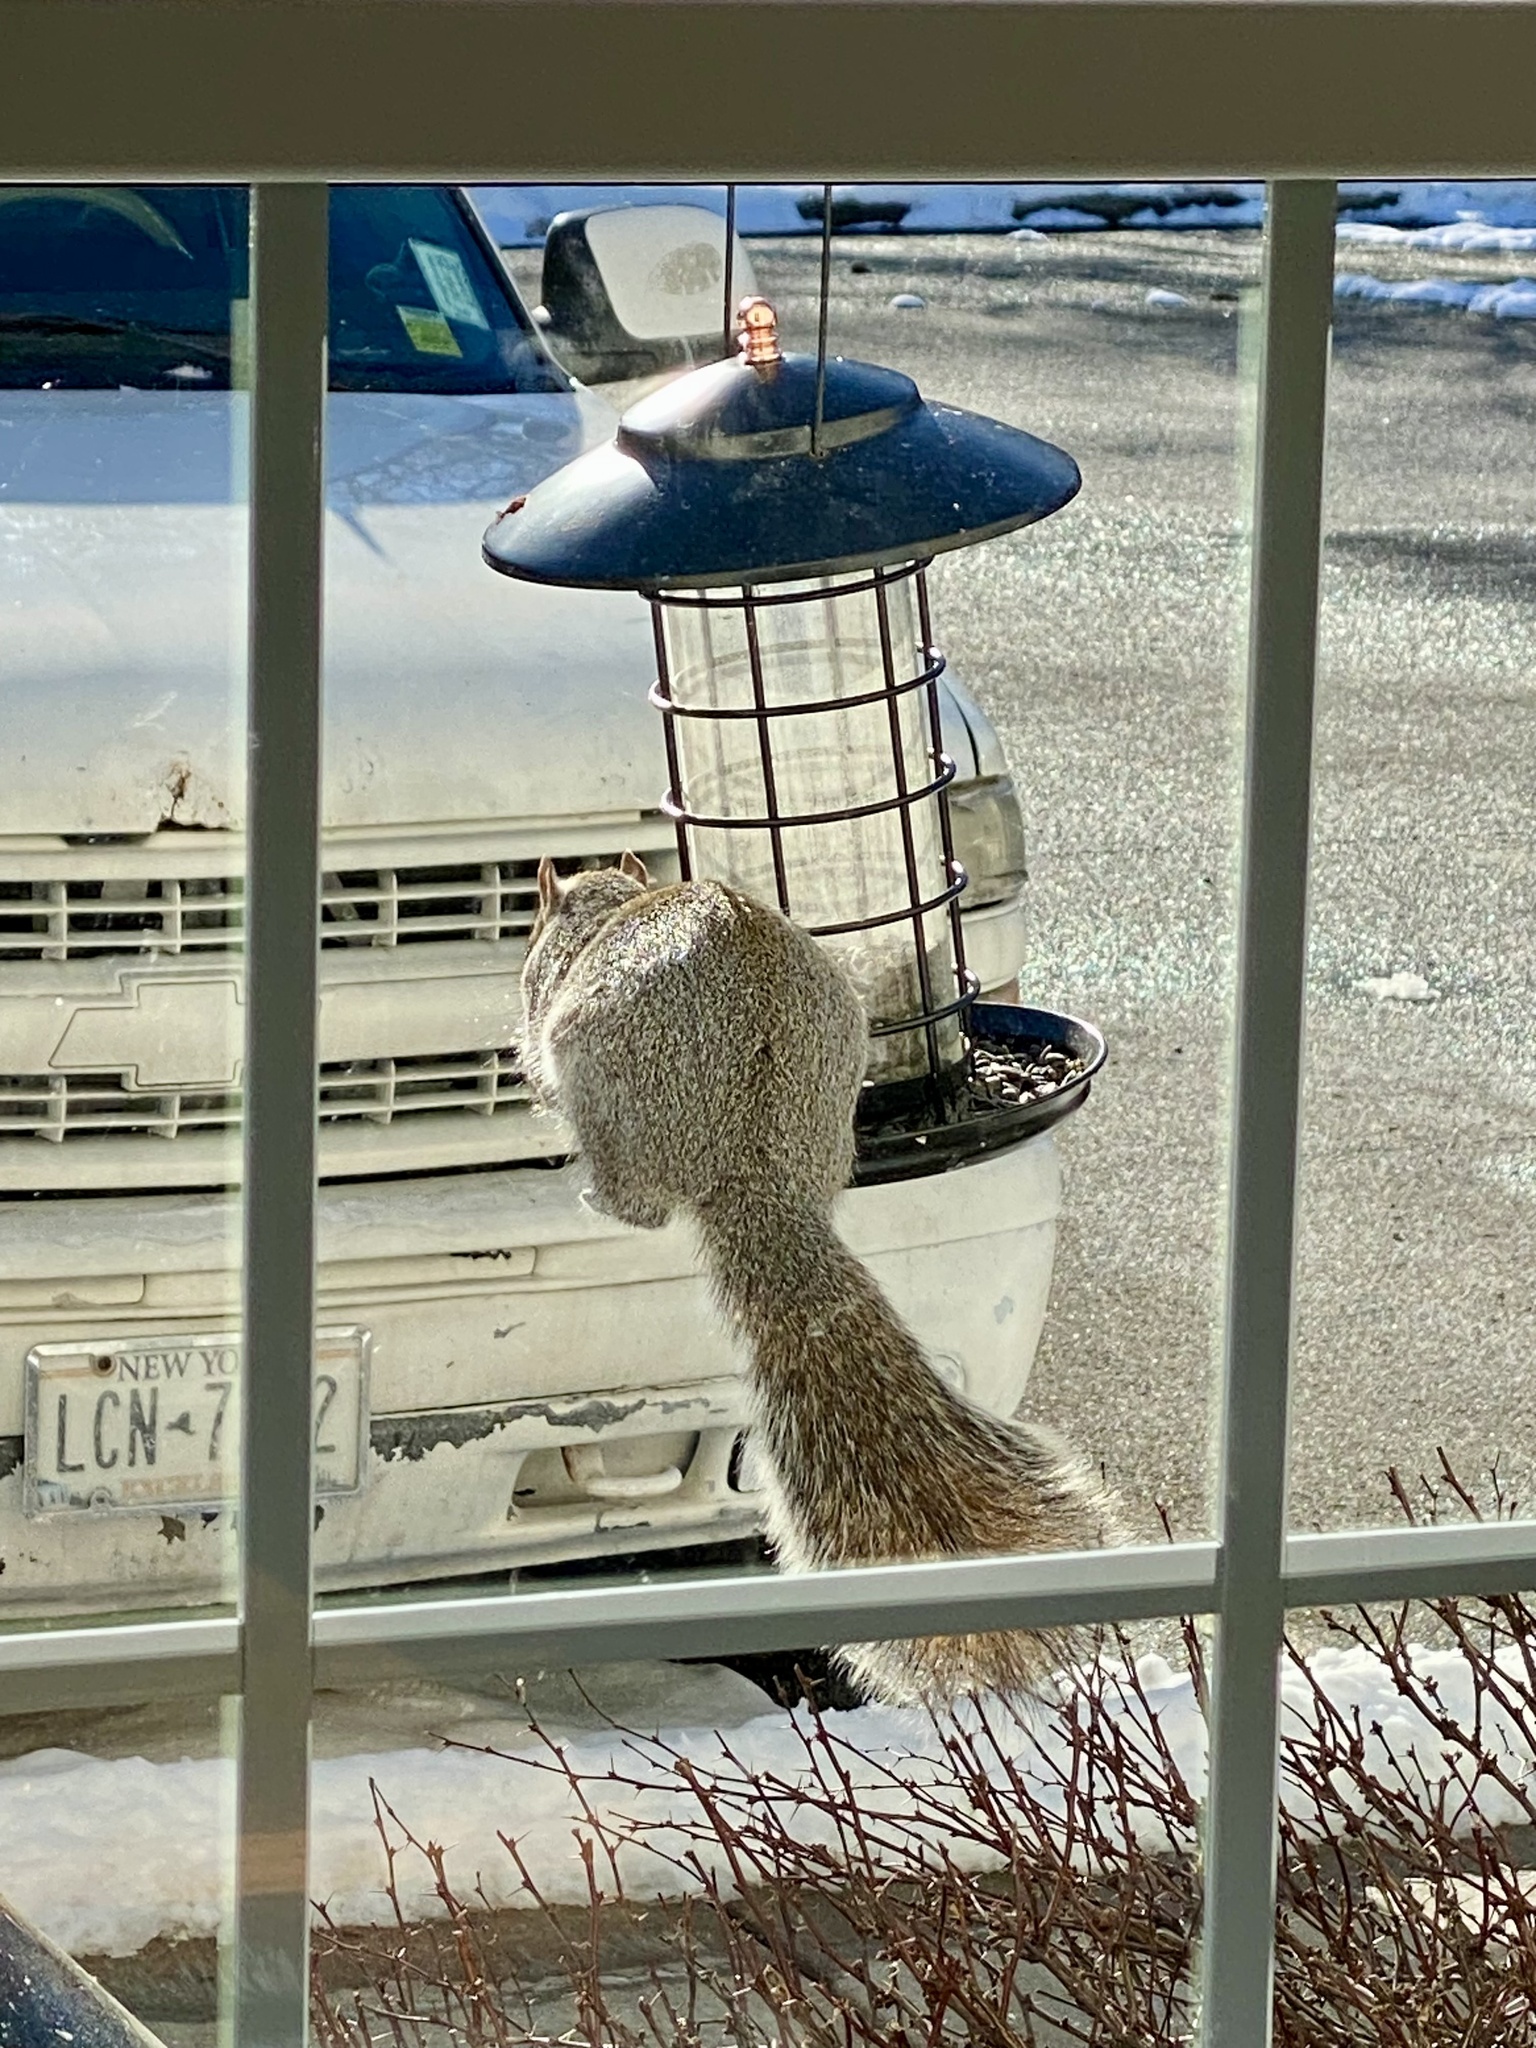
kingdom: Animalia
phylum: Chordata
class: Mammalia
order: Rodentia
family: Sciuridae
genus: Sciurus
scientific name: Sciurus carolinensis
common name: Eastern gray squirrel
